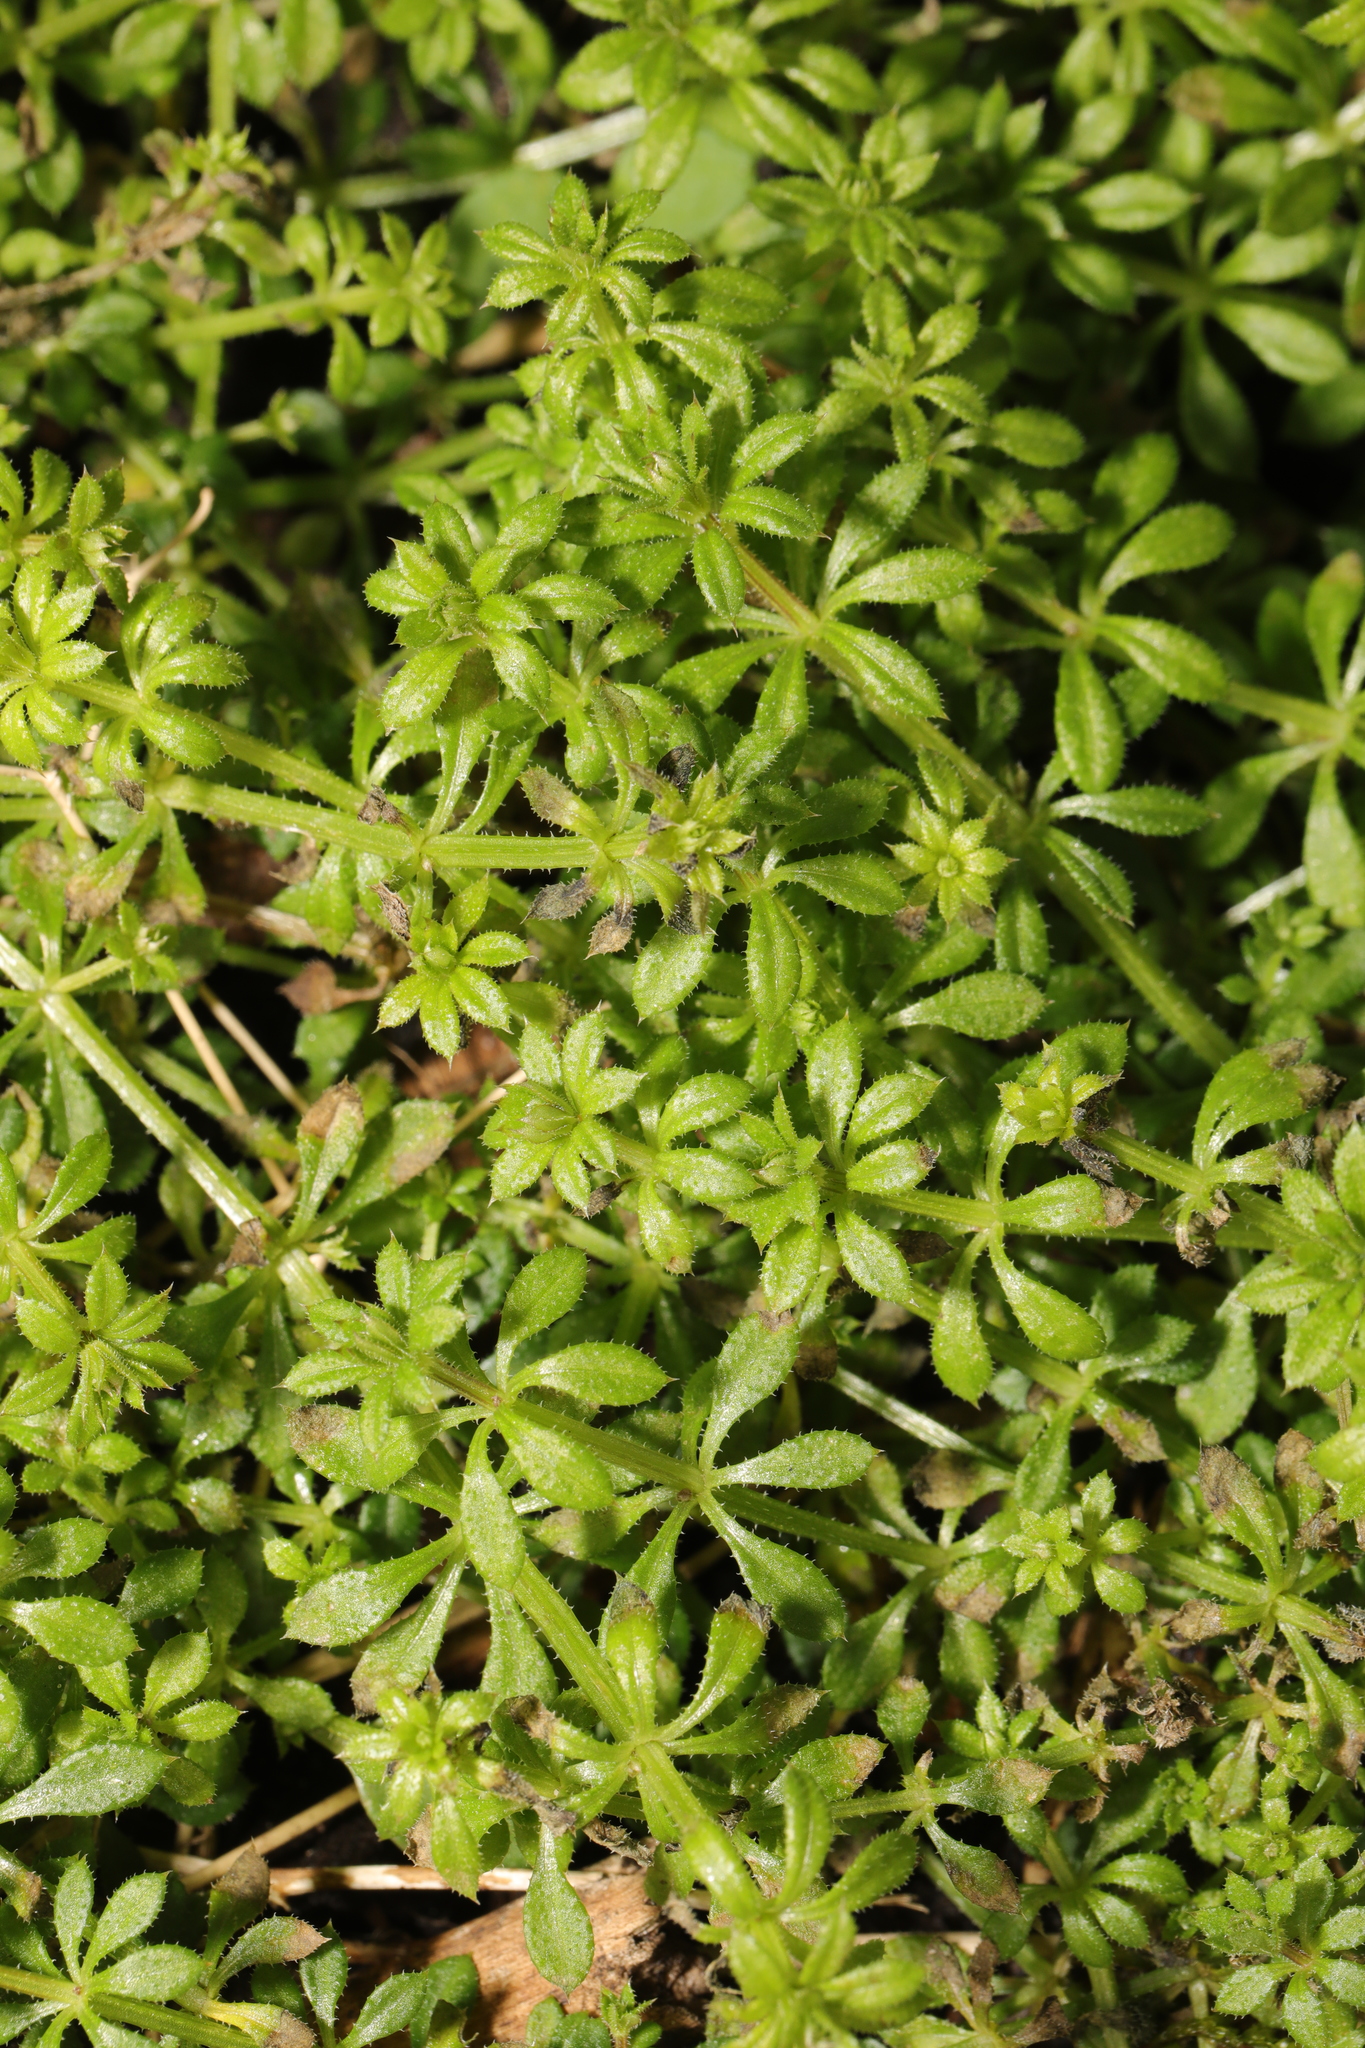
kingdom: Plantae
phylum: Tracheophyta
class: Magnoliopsida
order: Gentianales
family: Rubiaceae
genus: Galium
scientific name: Galium aparine
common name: Cleavers
